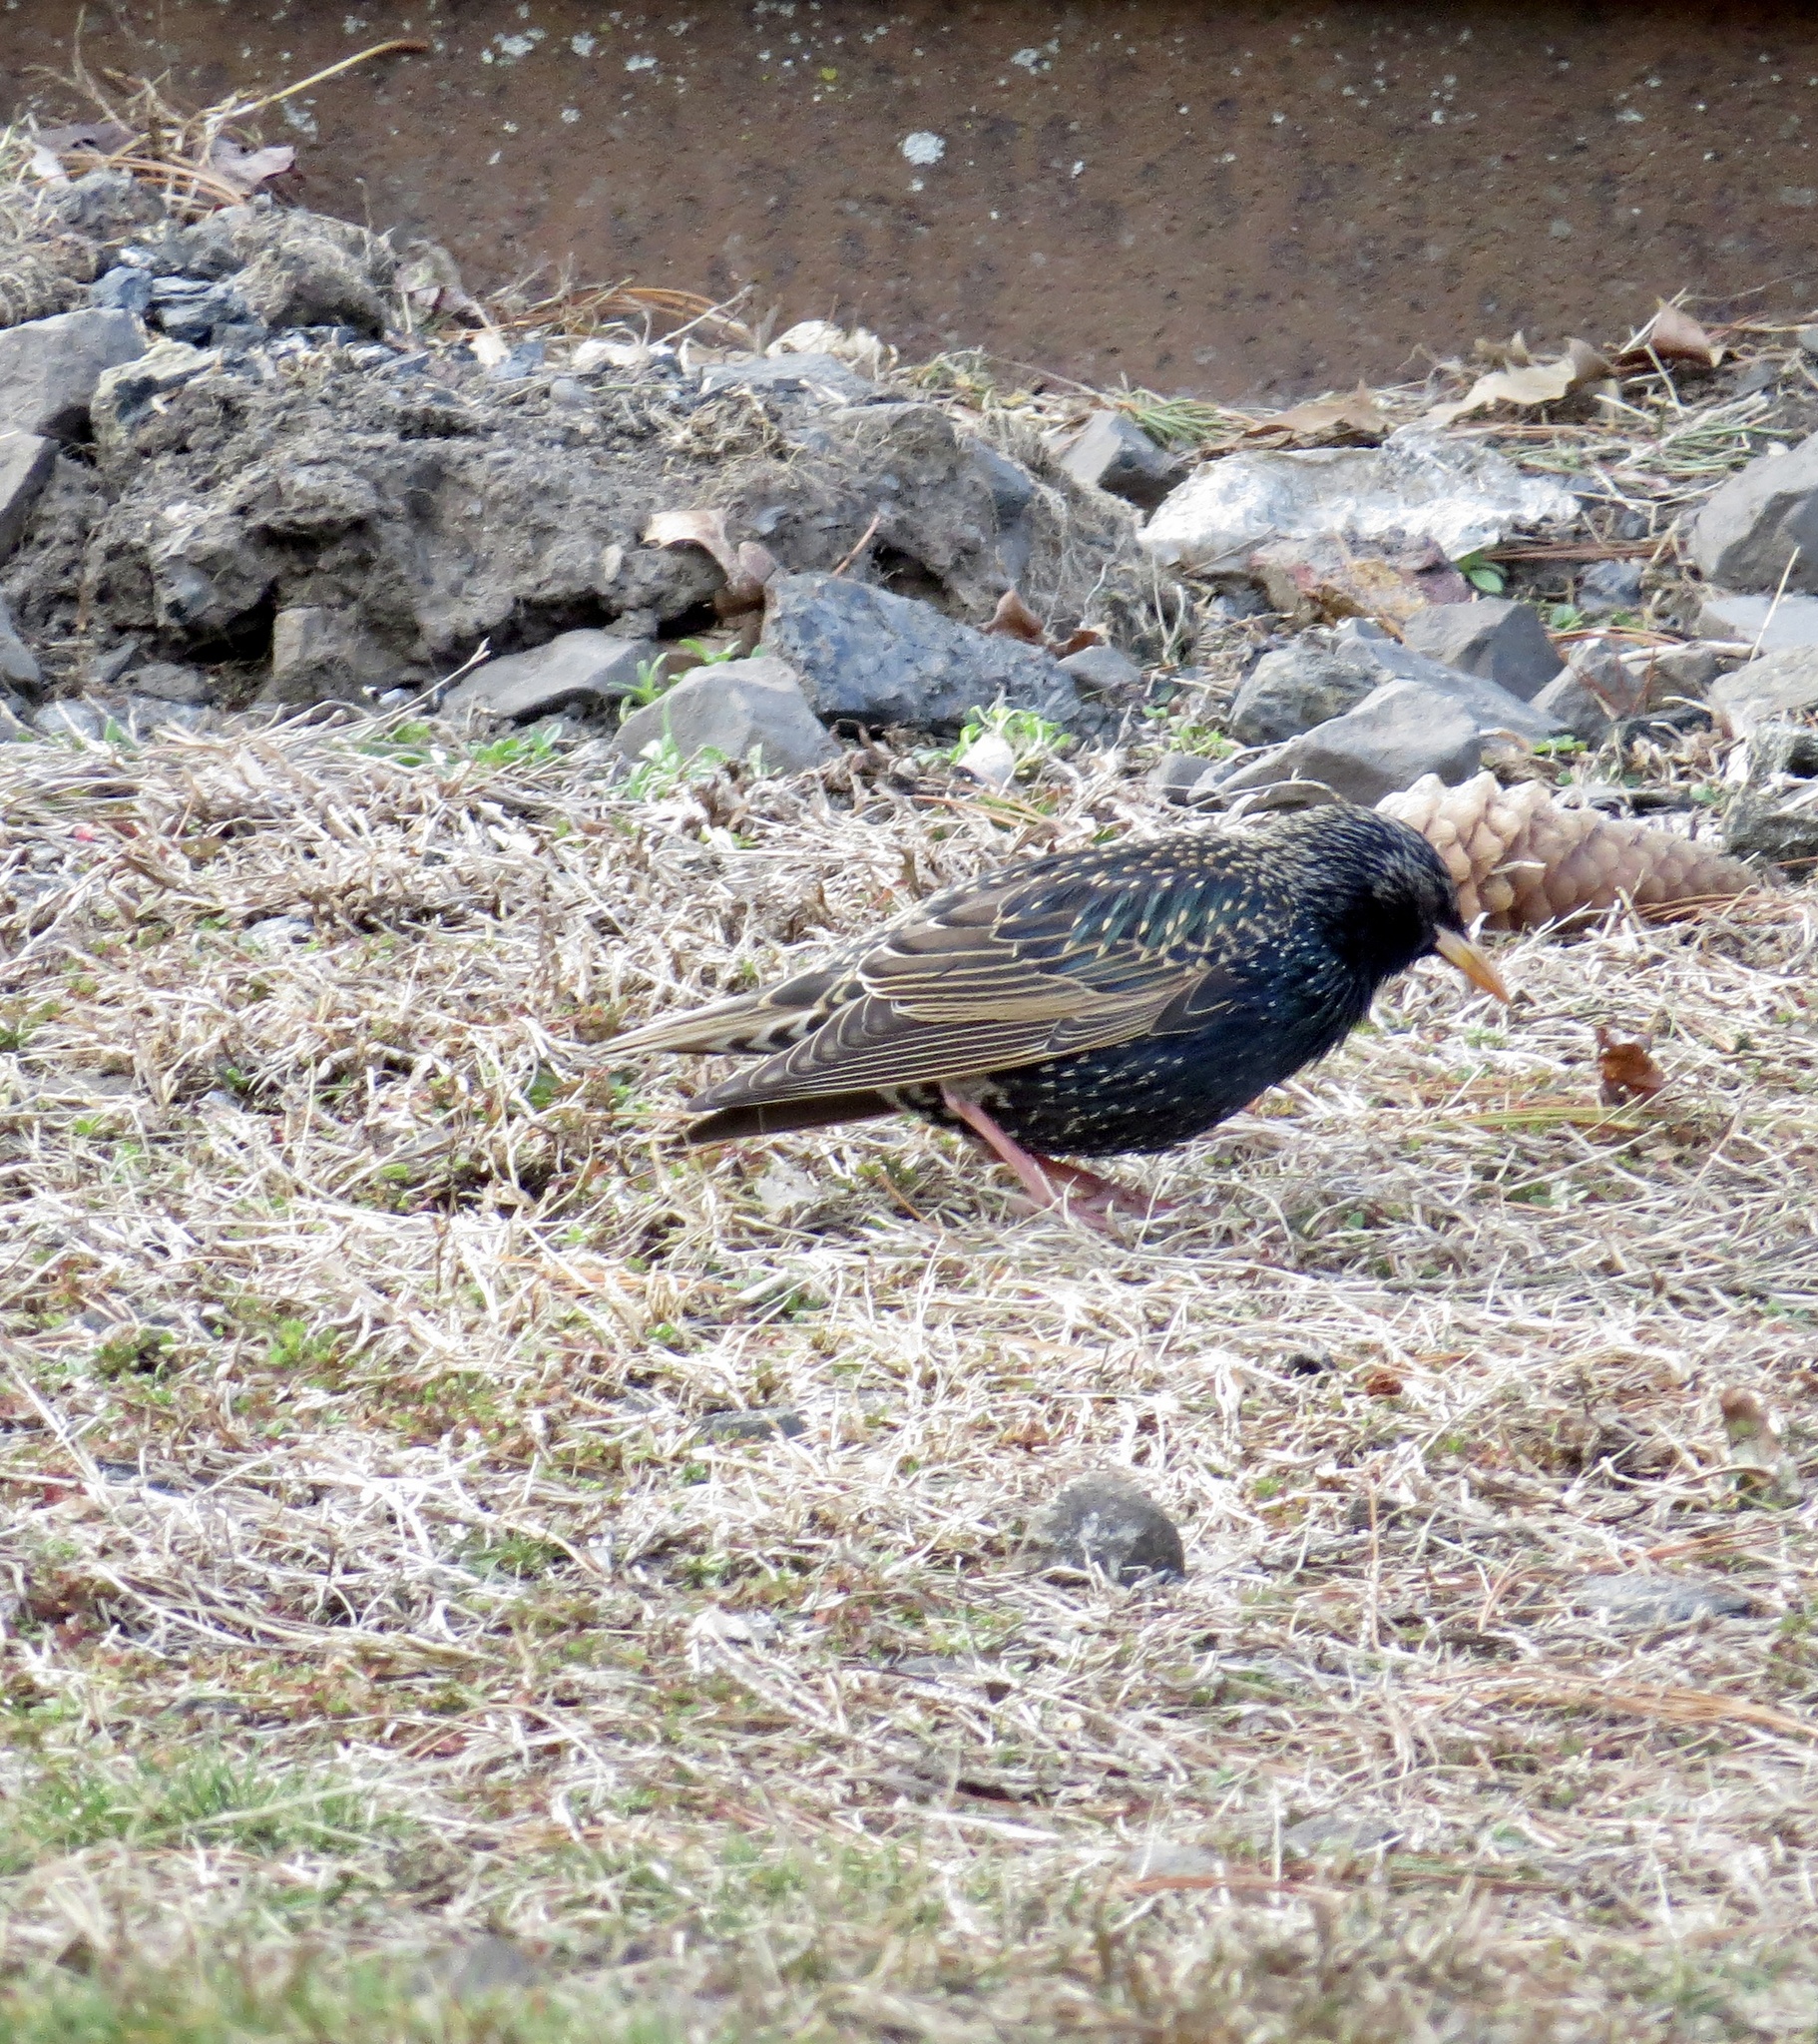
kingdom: Animalia
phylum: Chordata
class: Aves
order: Passeriformes
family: Sturnidae
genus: Sturnus
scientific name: Sturnus vulgaris
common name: Common starling
